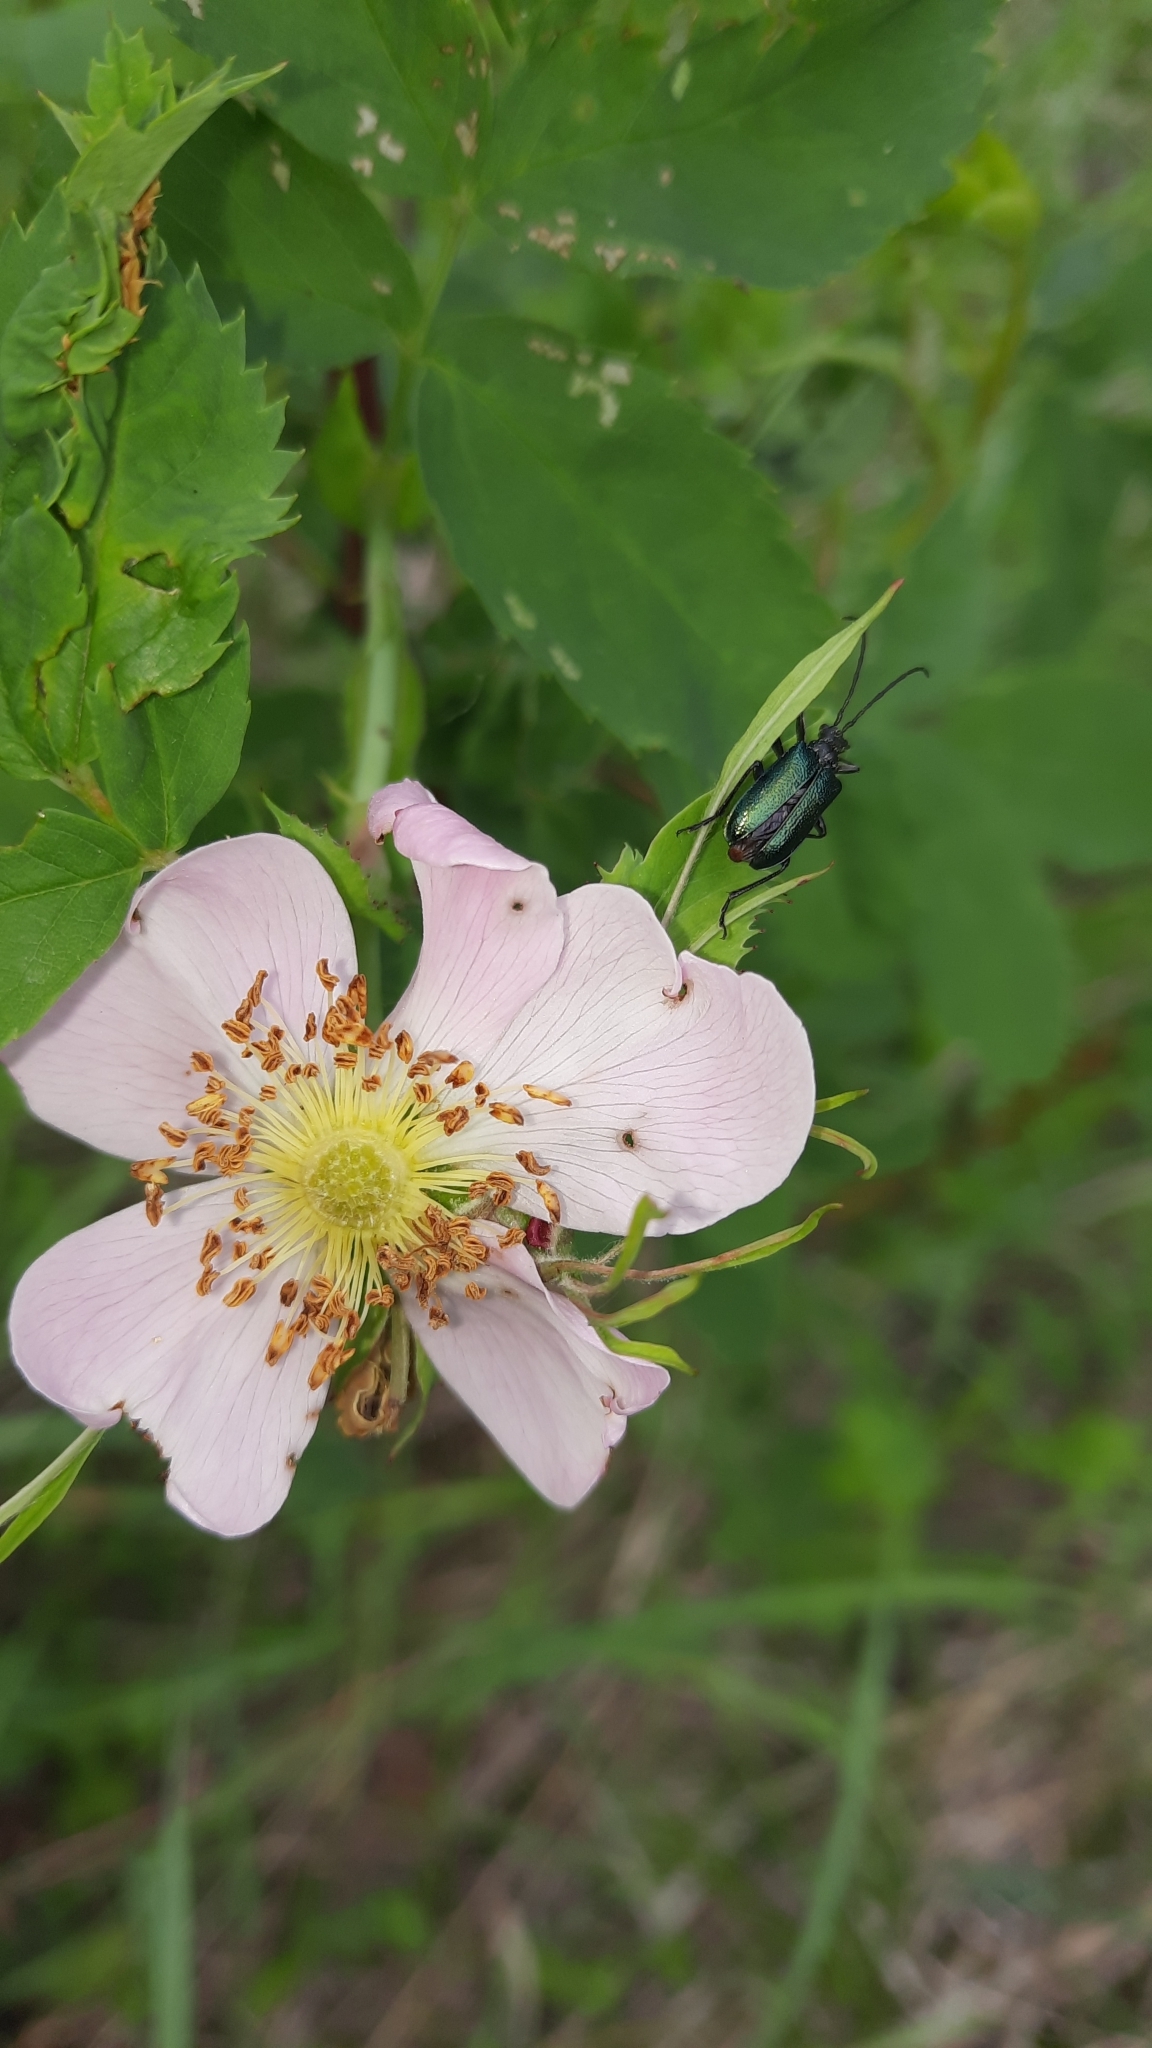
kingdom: Animalia
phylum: Arthropoda
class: Insecta
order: Coleoptera
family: Cerambycidae
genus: Gaurotes
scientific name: Gaurotes virginea
